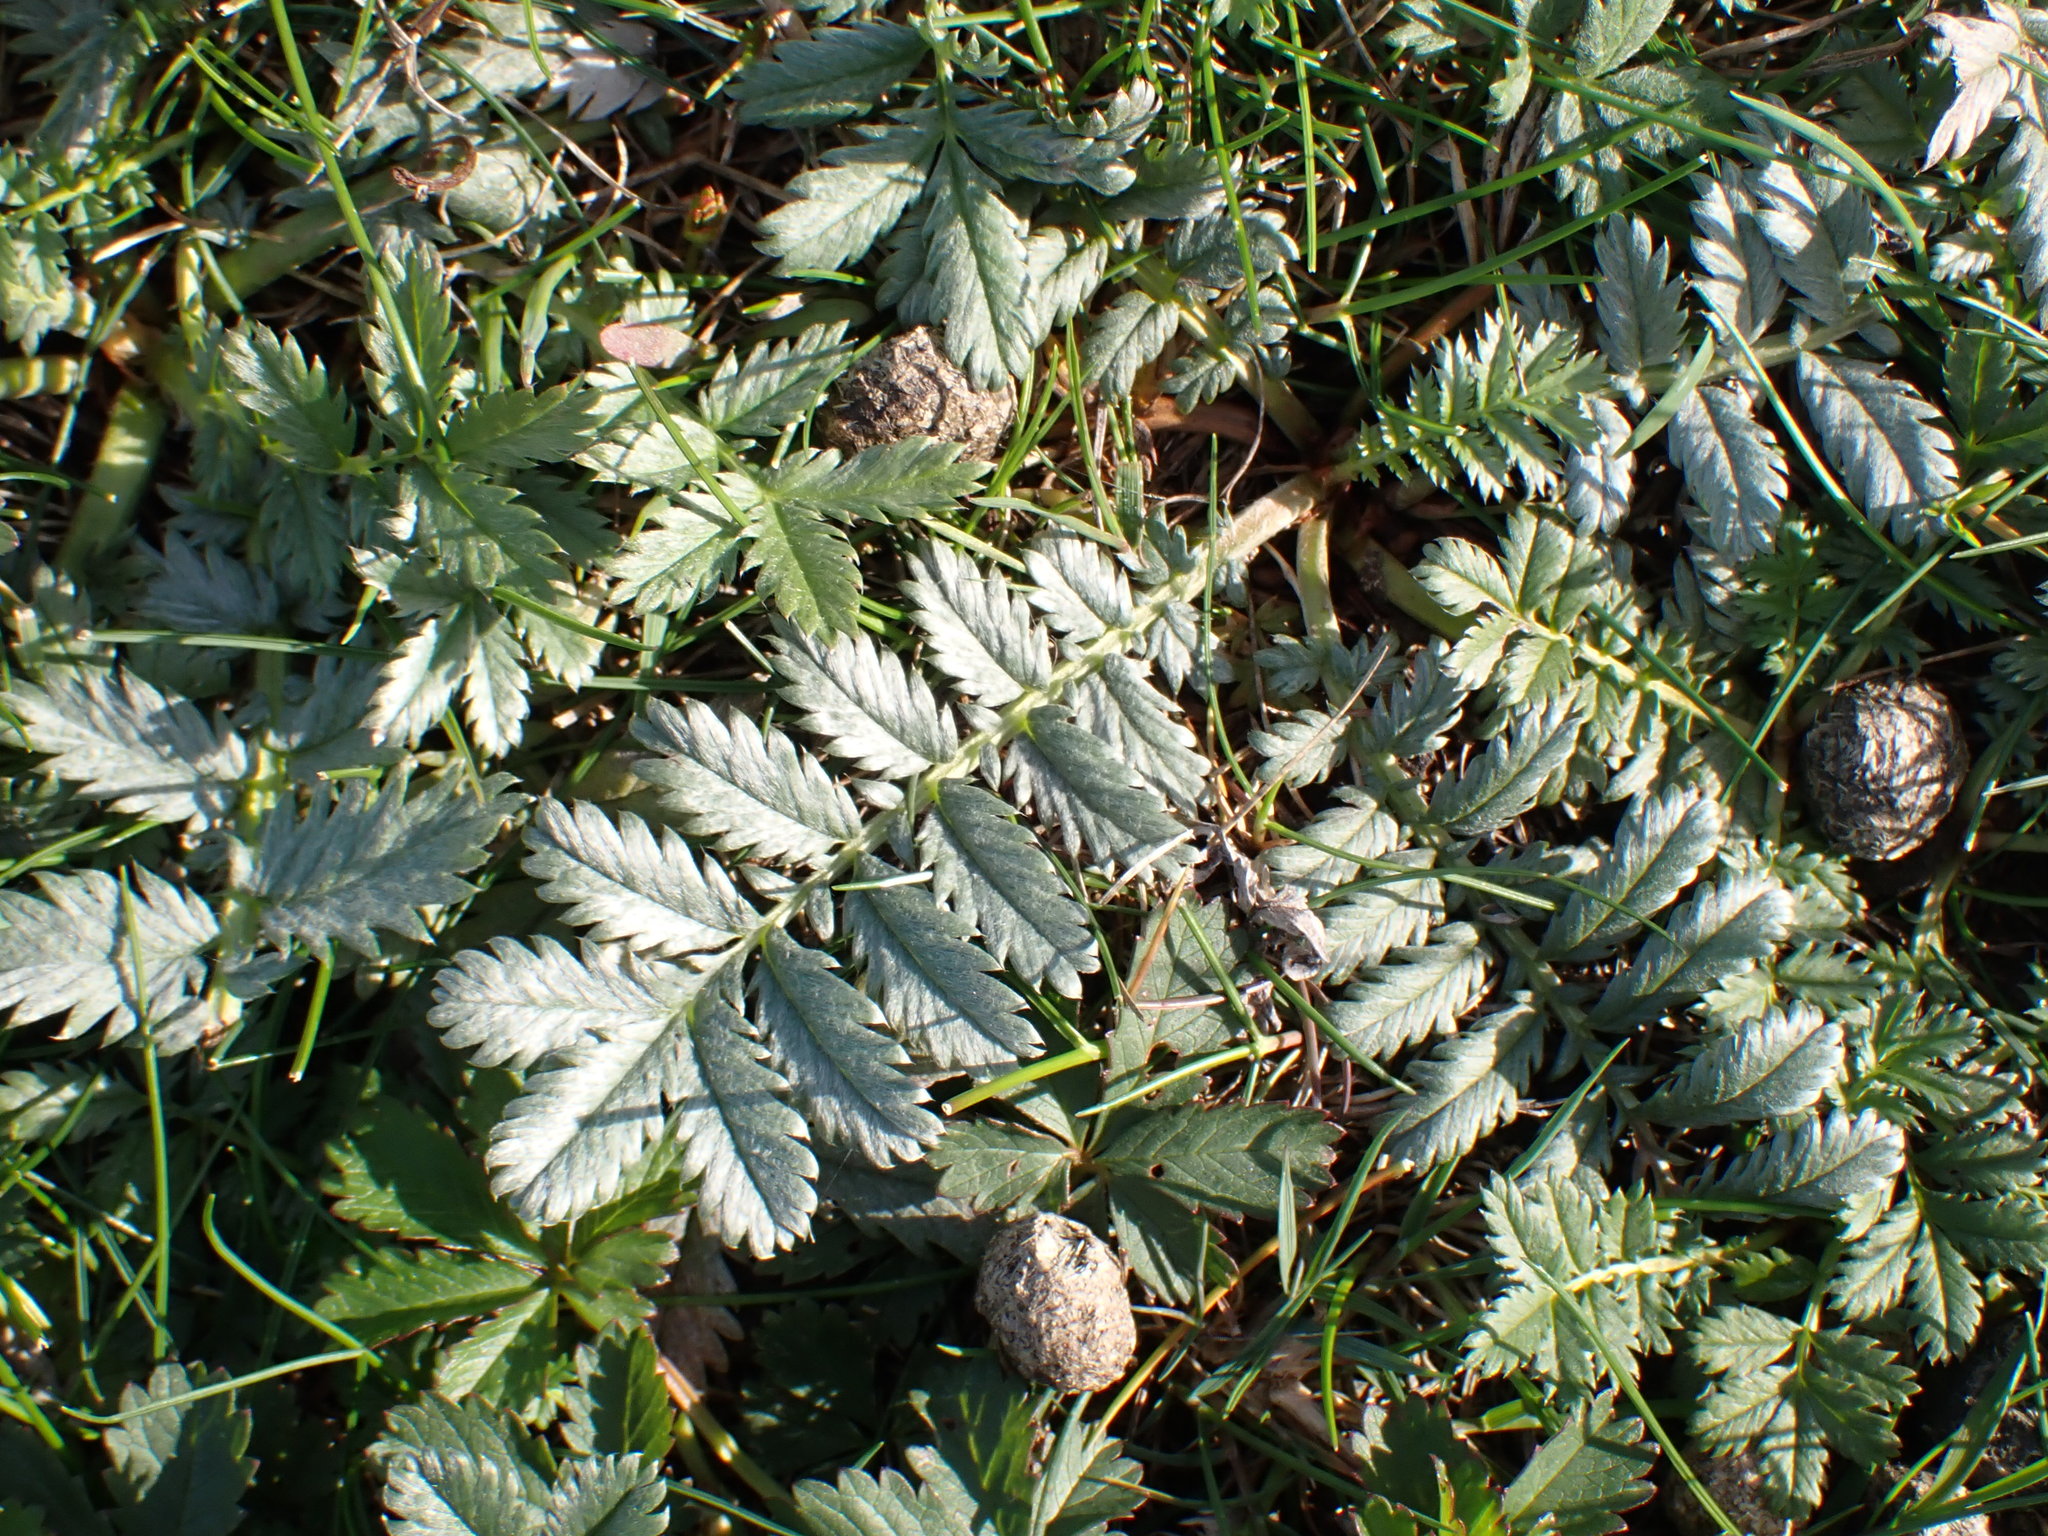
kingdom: Plantae
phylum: Tracheophyta
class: Magnoliopsida
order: Rosales
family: Rosaceae
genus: Argentina
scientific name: Argentina anserina
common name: Common silverweed
